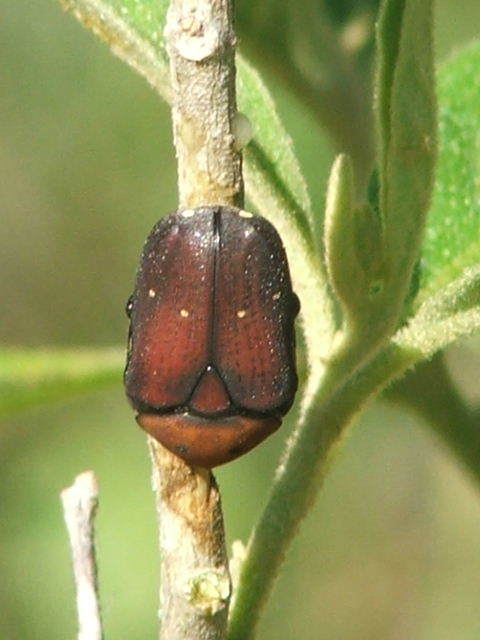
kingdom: Animalia
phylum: Arthropoda
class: Insecta
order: Coleoptera
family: Scarabaeidae
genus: Tephraea
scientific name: Tephraea dichroa
